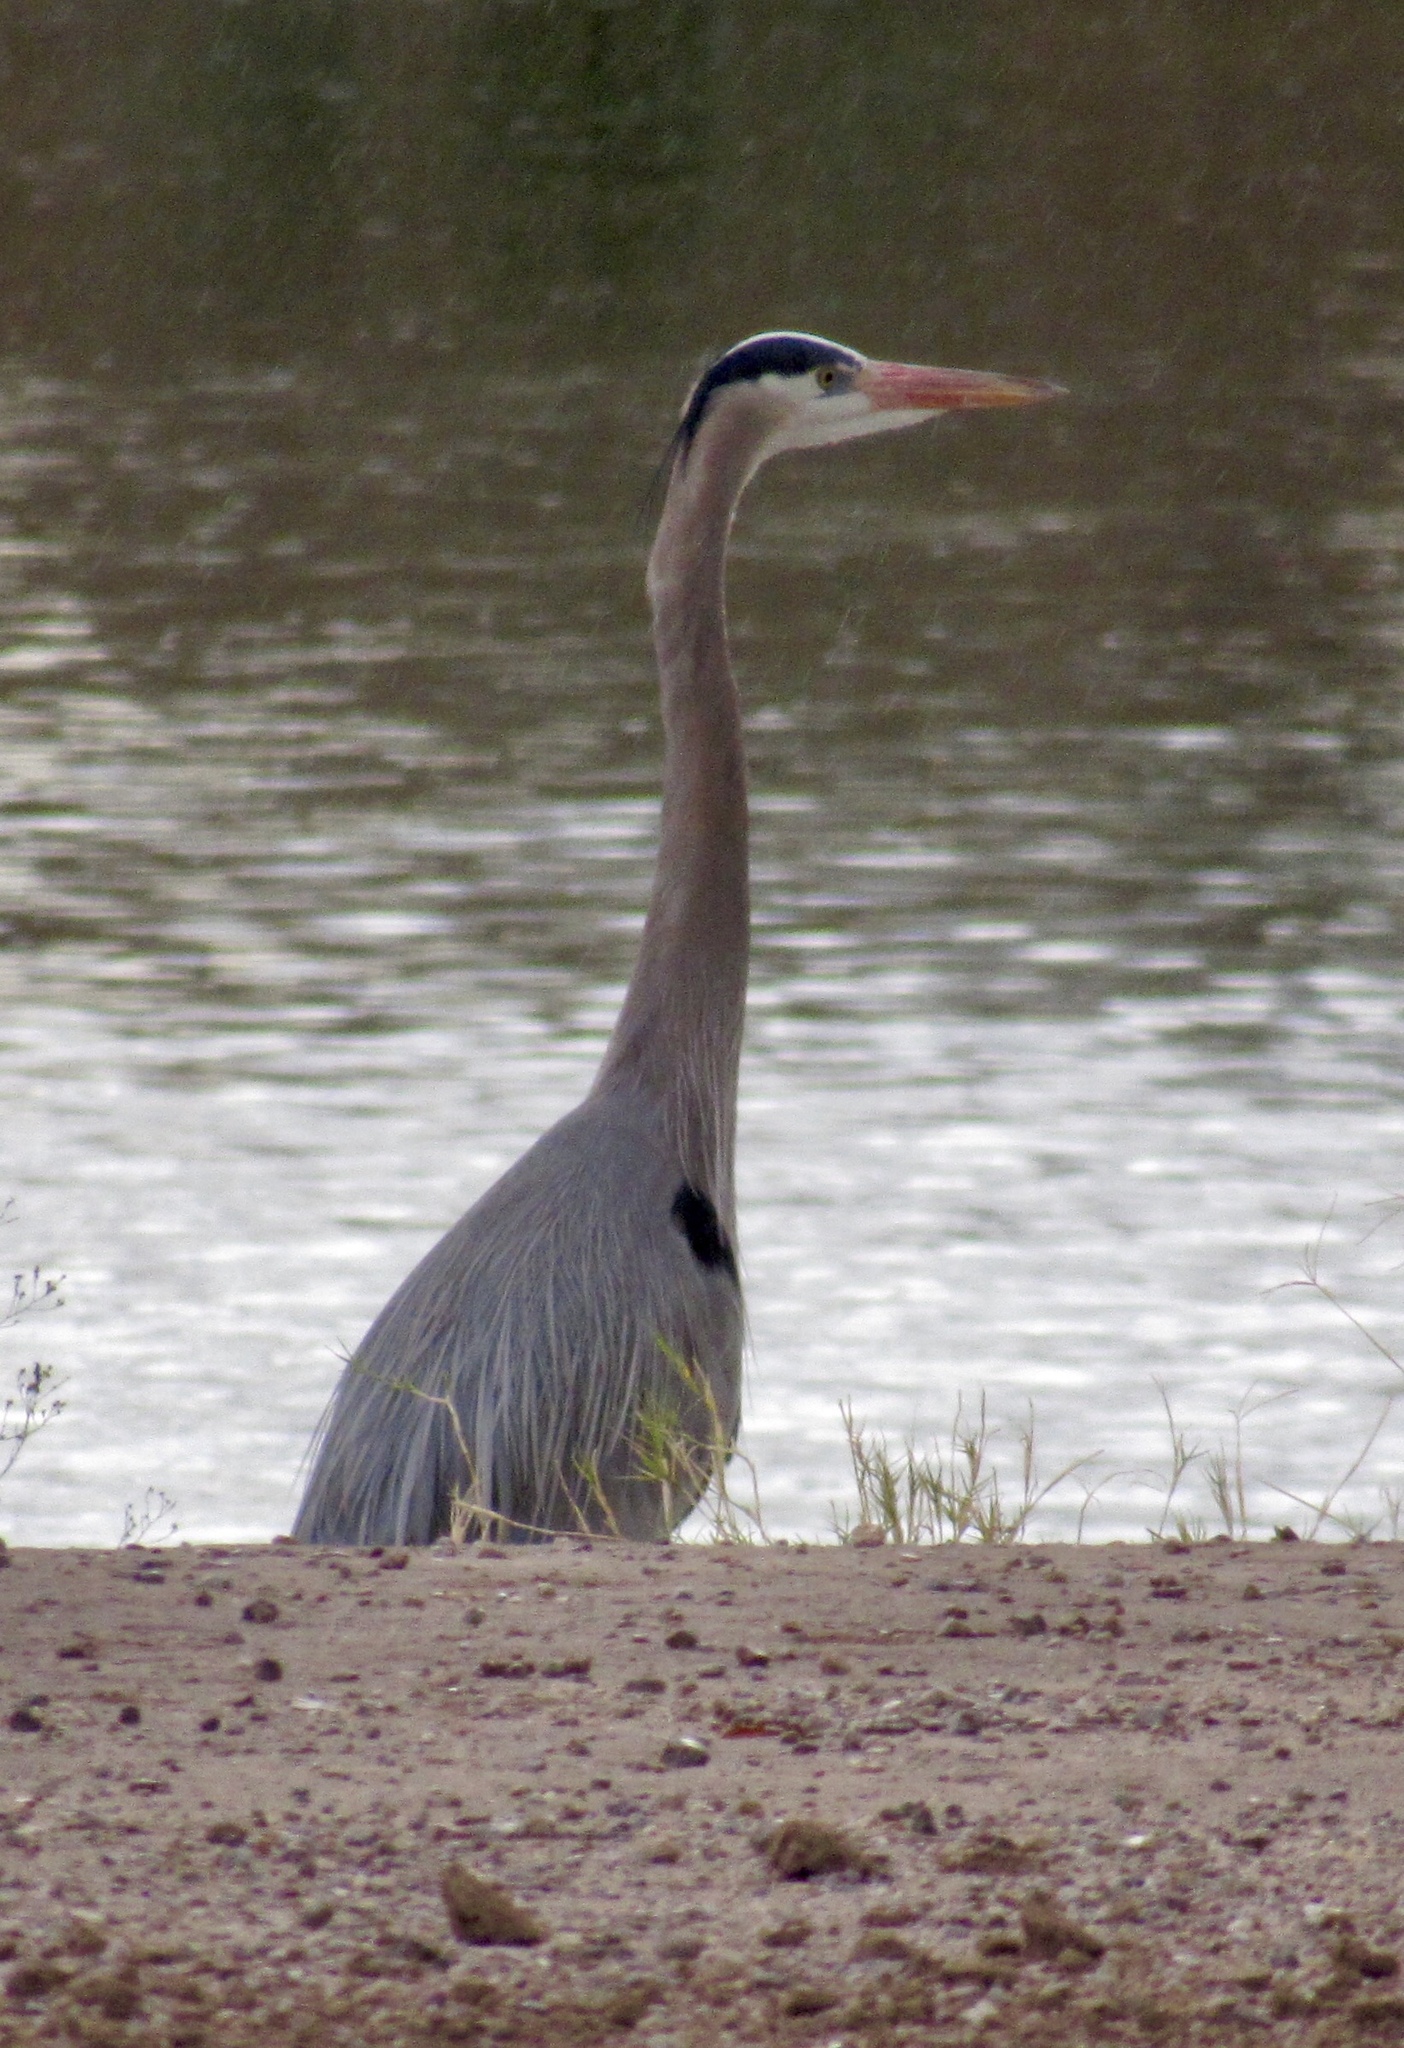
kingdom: Animalia
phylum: Chordata
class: Aves
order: Pelecaniformes
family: Ardeidae
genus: Ardea
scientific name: Ardea herodias
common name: Great blue heron
